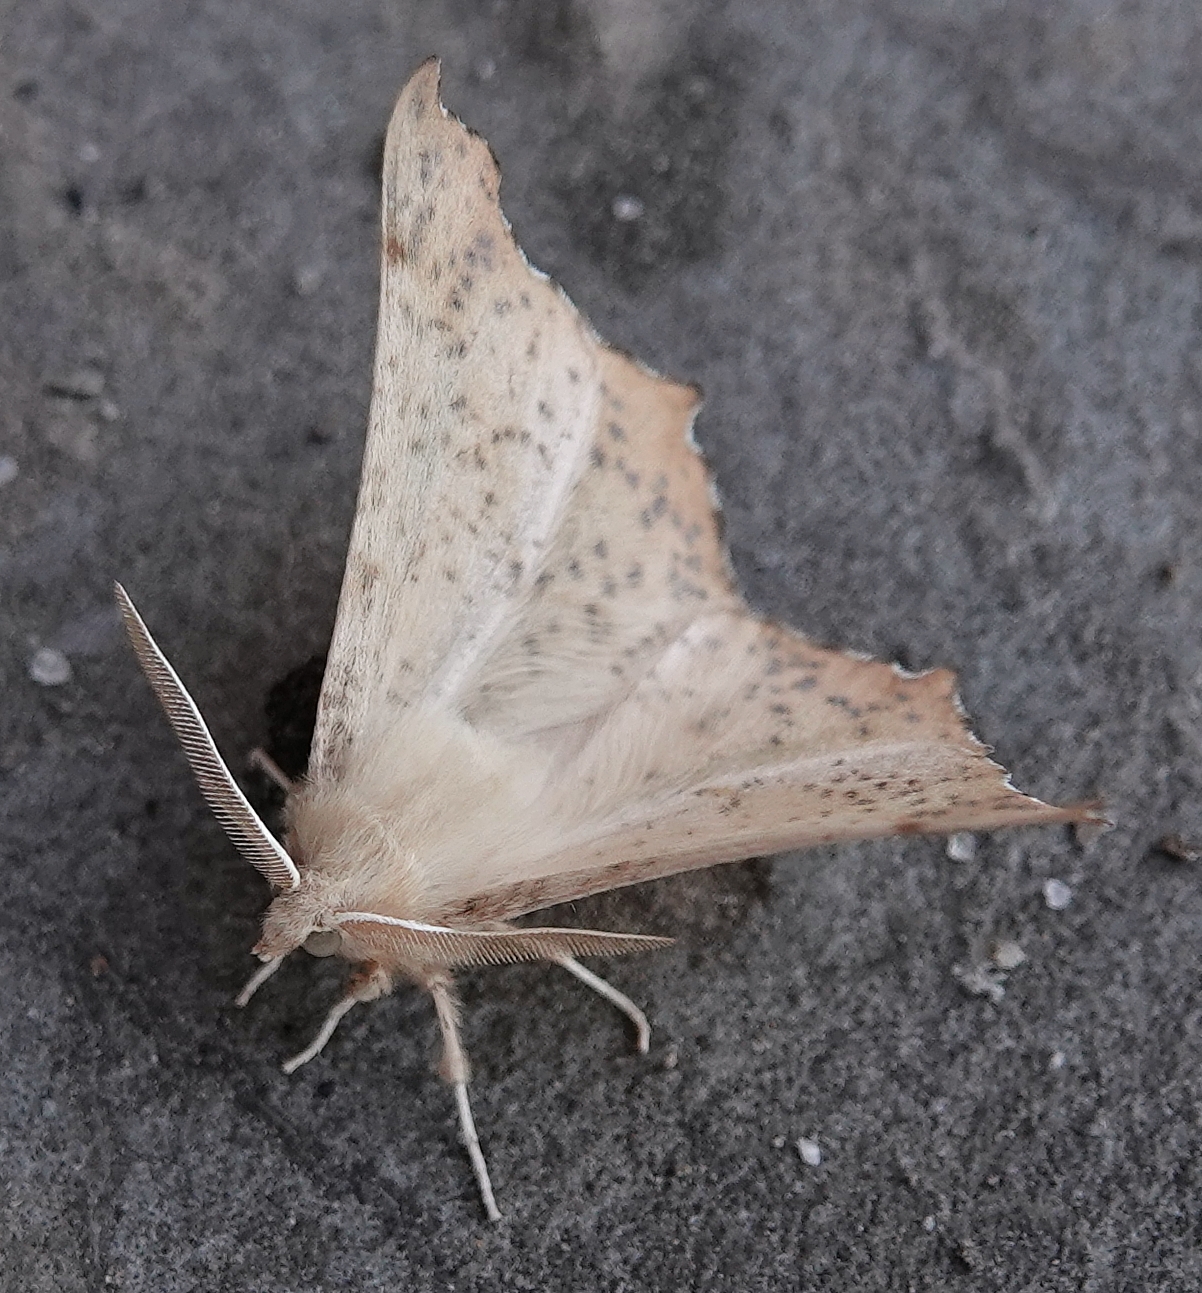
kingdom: Animalia
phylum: Arthropoda
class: Insecta
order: Lepidoptera
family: Geometridae
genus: Ennomos
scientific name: Ennomos magnaria
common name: Maple spanworm
